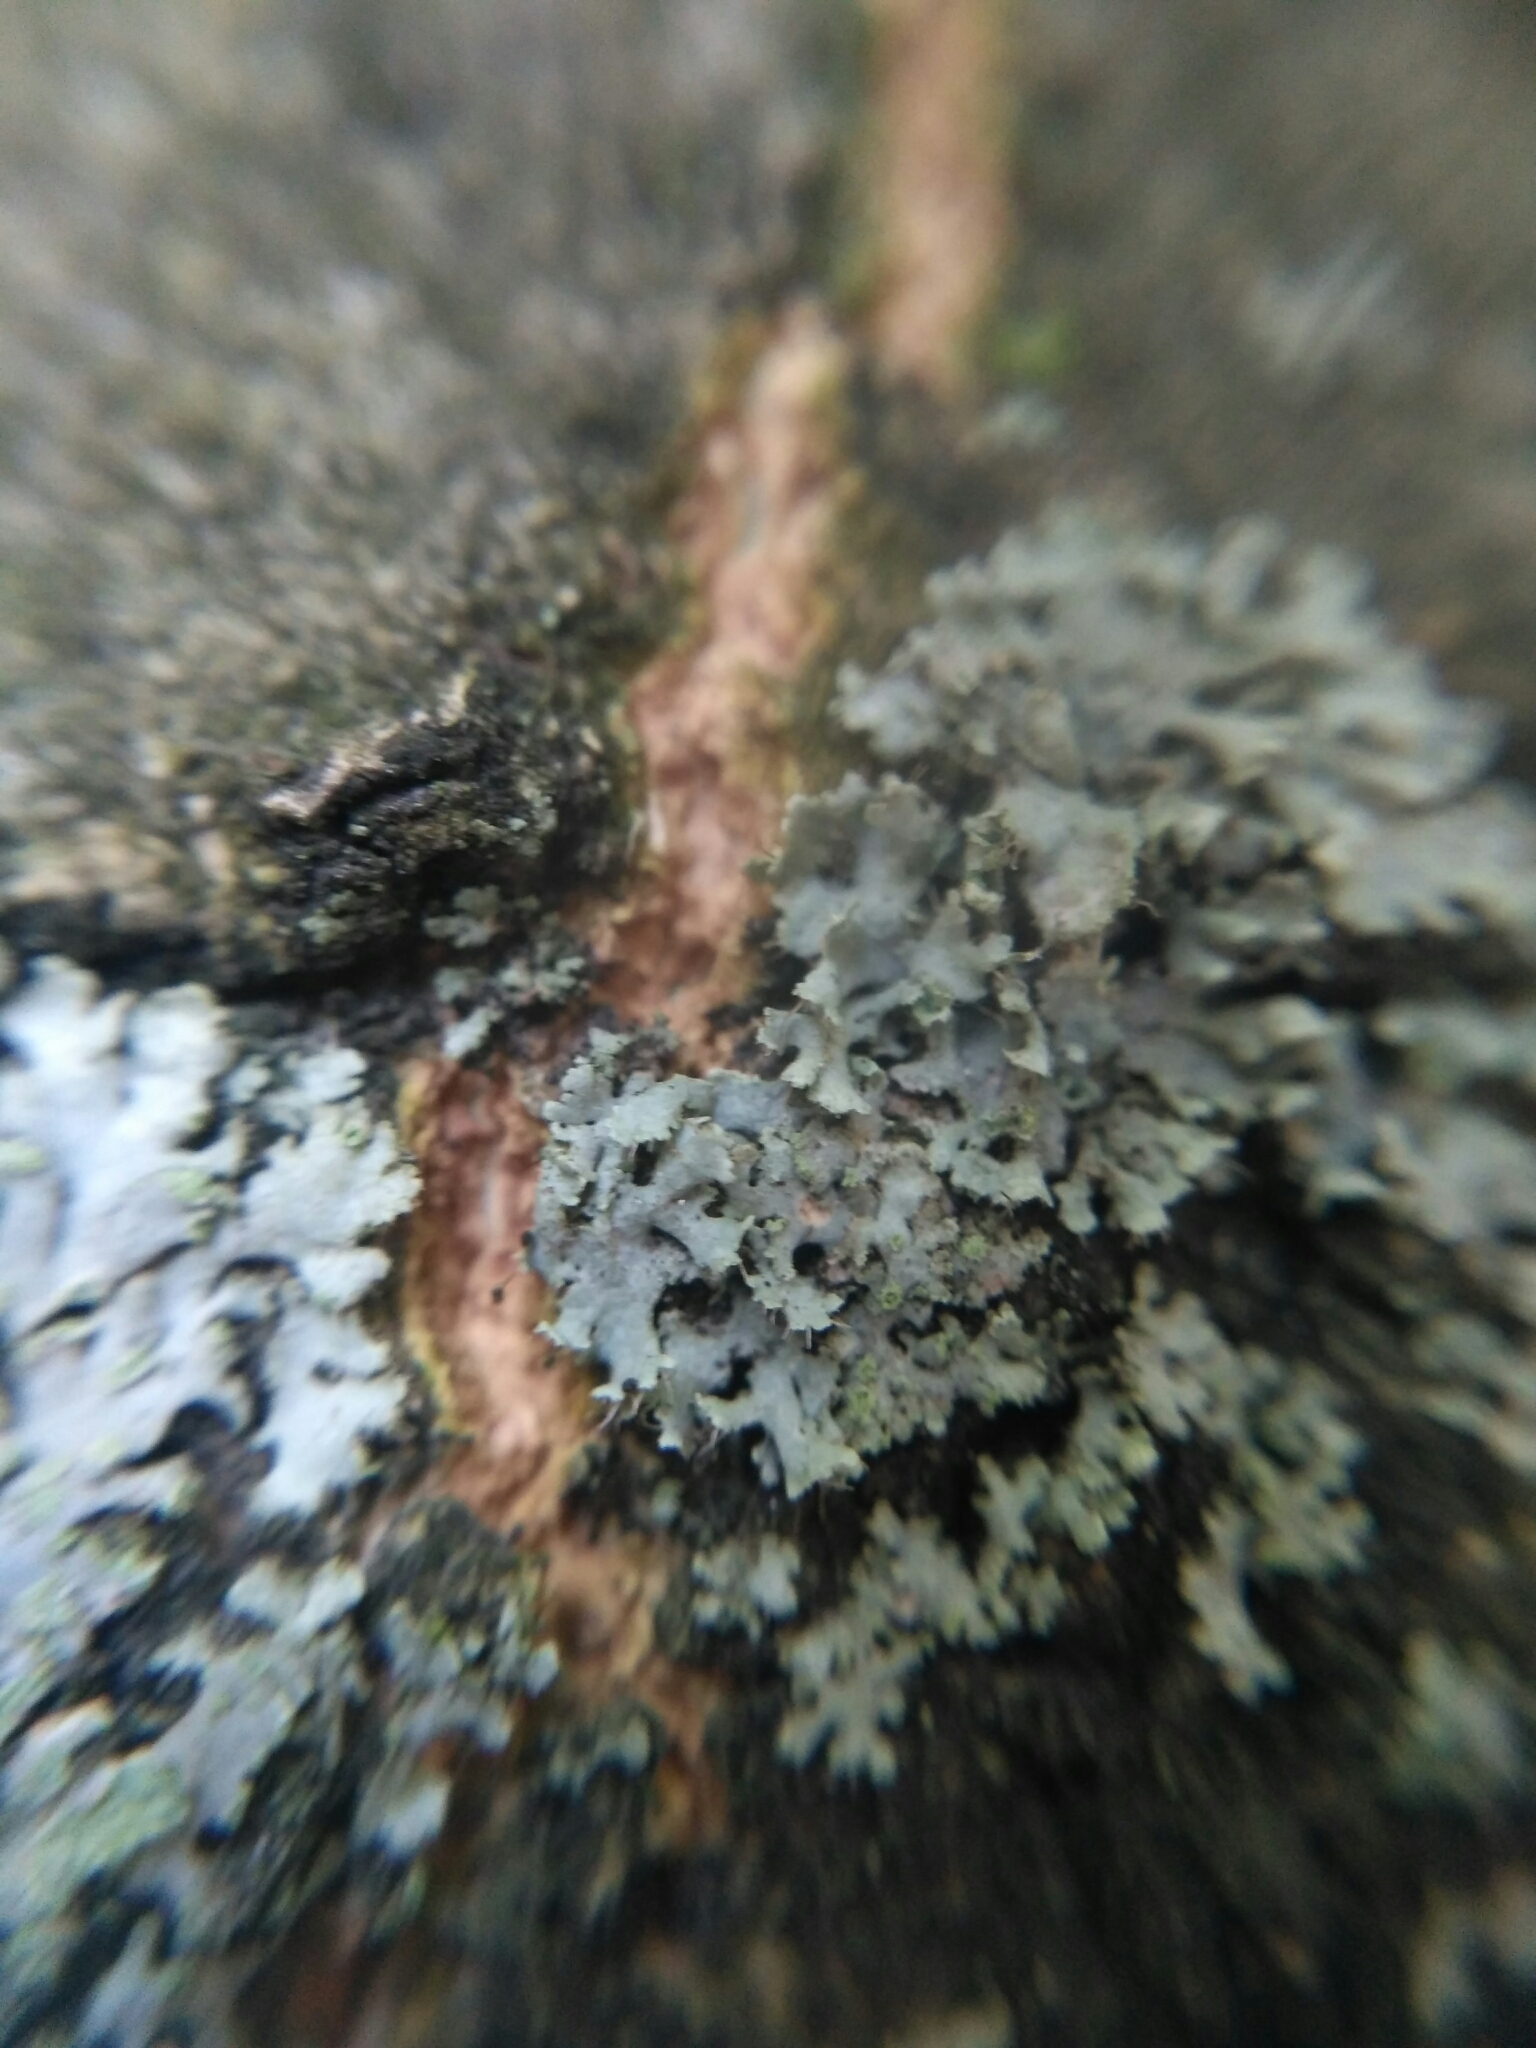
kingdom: Fungi
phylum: Ascomycota
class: Lecanoromycetes
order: Caliciales
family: Physciaceae
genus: Physcia
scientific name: Physcia tenella
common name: Fringed rosette lichen
